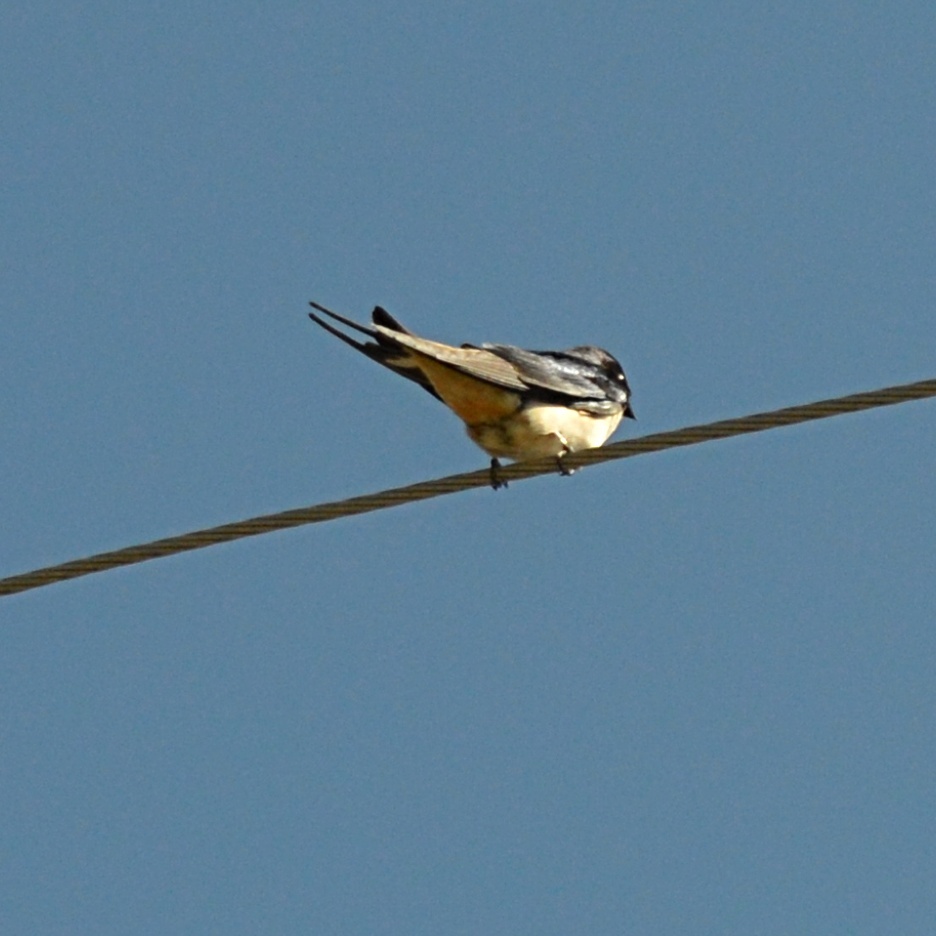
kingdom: Animalia
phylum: Chordata
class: Aves
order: Passeriformes
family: Hirundinidae
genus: Hirundo
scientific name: Hirundo rustica
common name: Barn swallow
